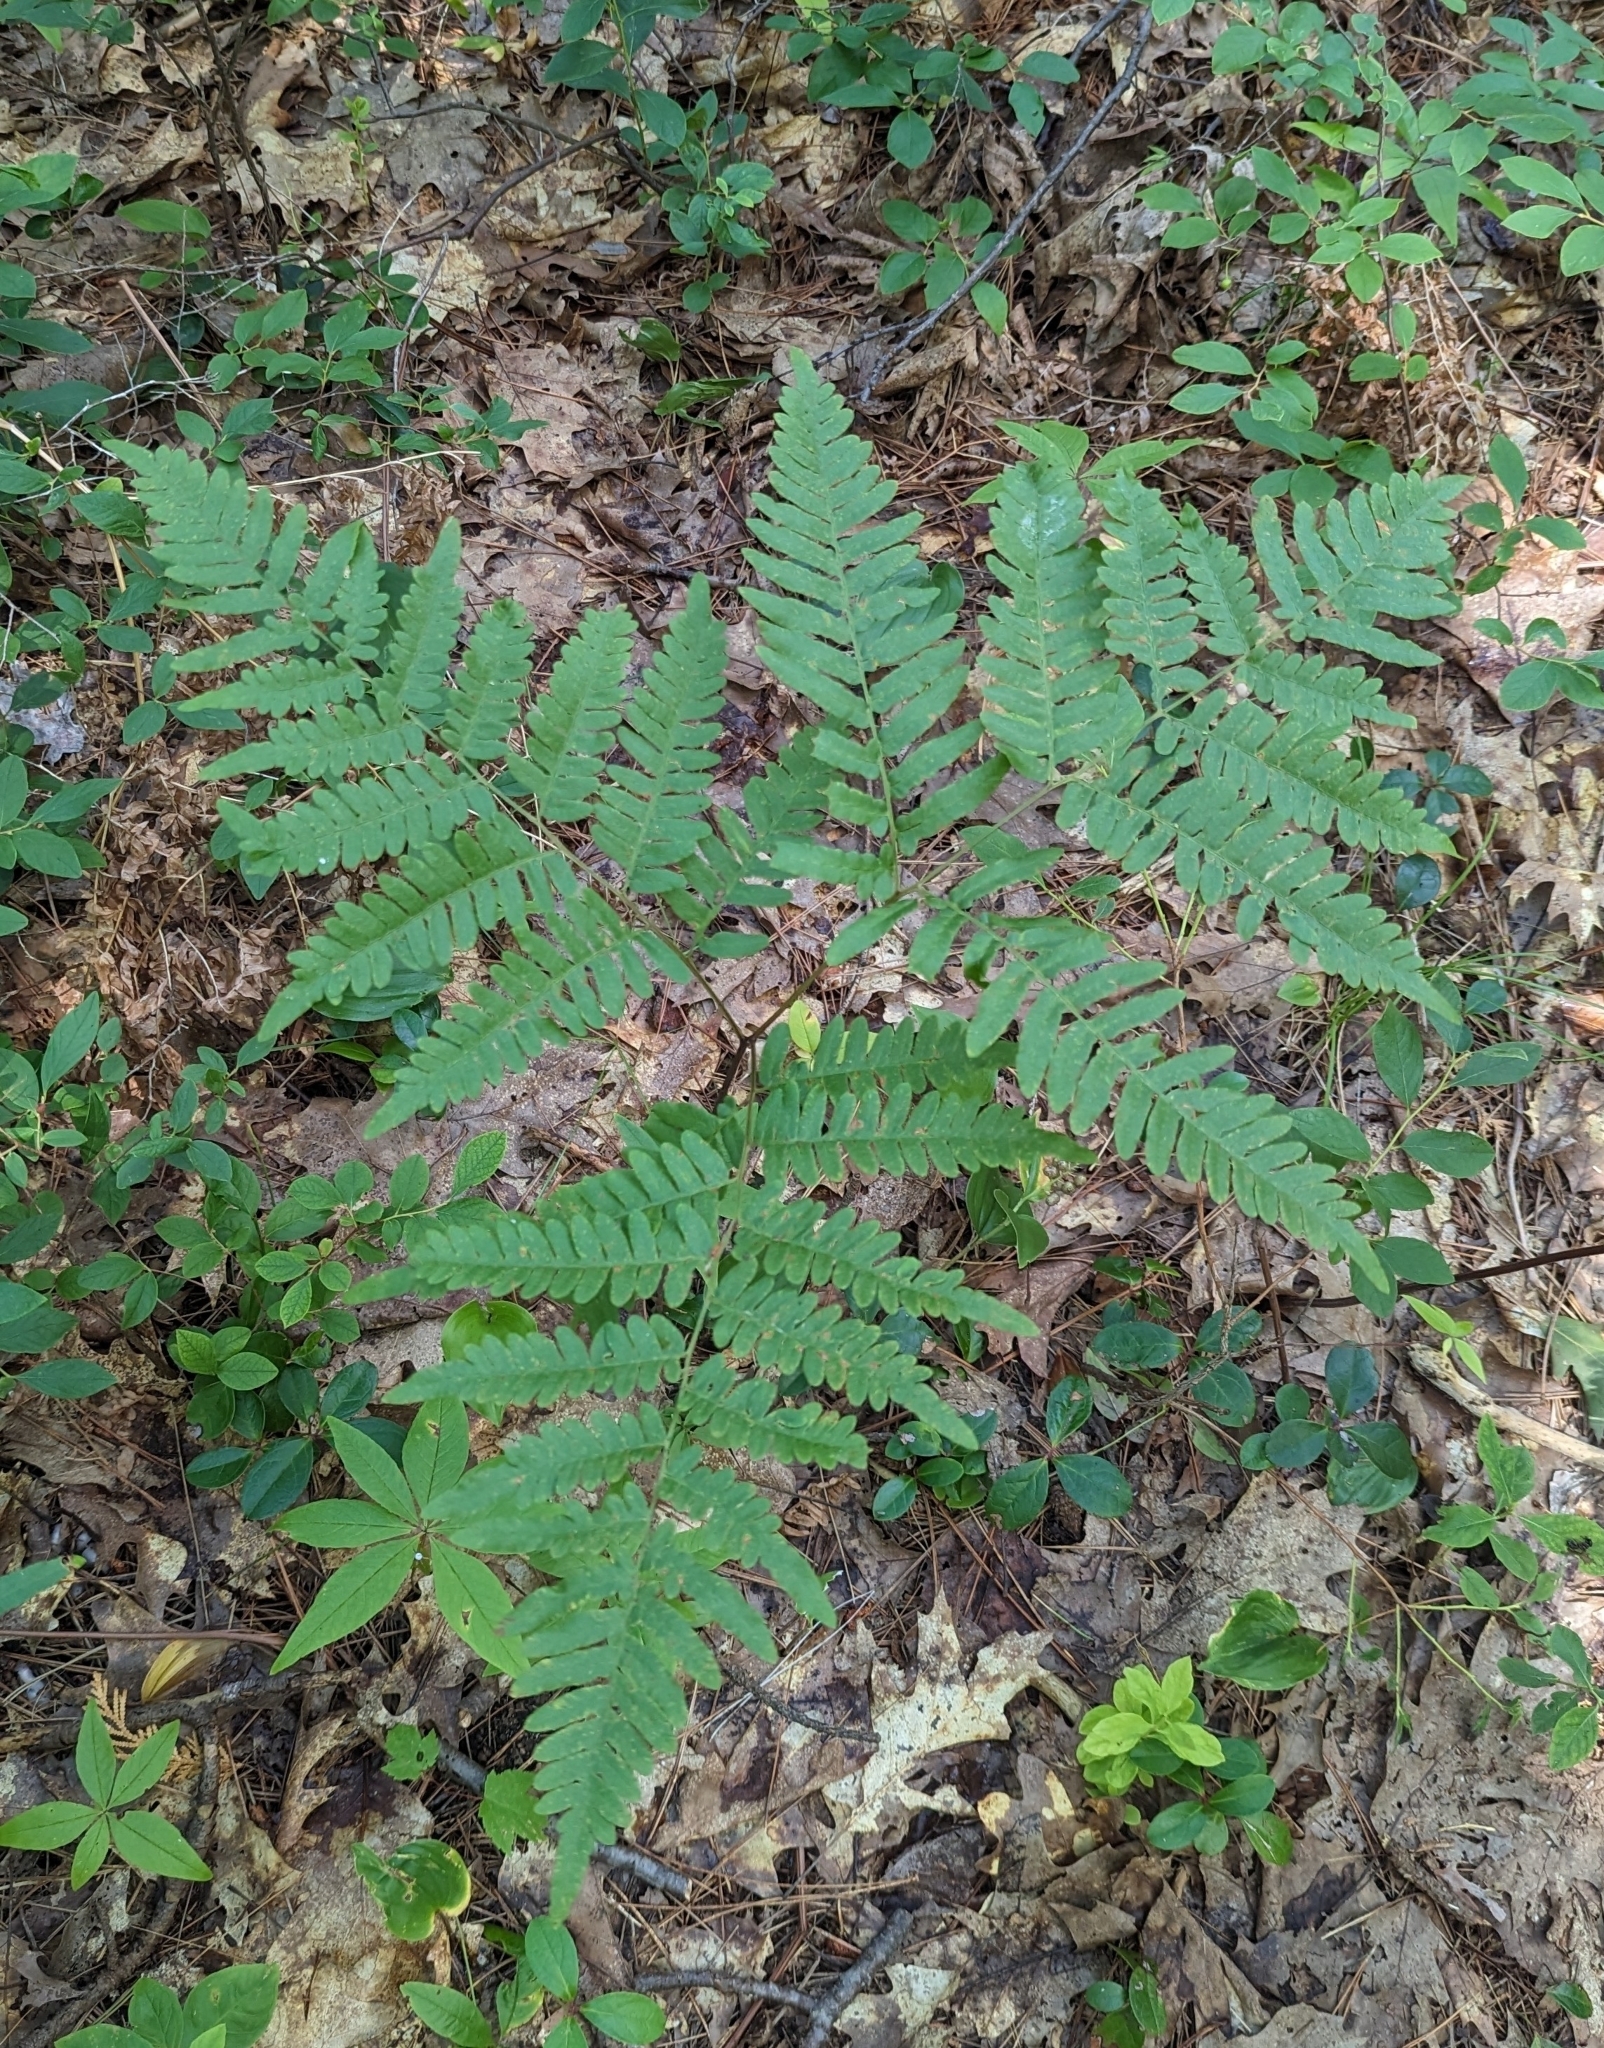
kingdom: Plantae
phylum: Tracheophyta
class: Polypodiopsida
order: Polypodiales
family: Dennstaedtiaceae
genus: Pteridium
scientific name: Pteridium aquilinum
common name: Bracken
